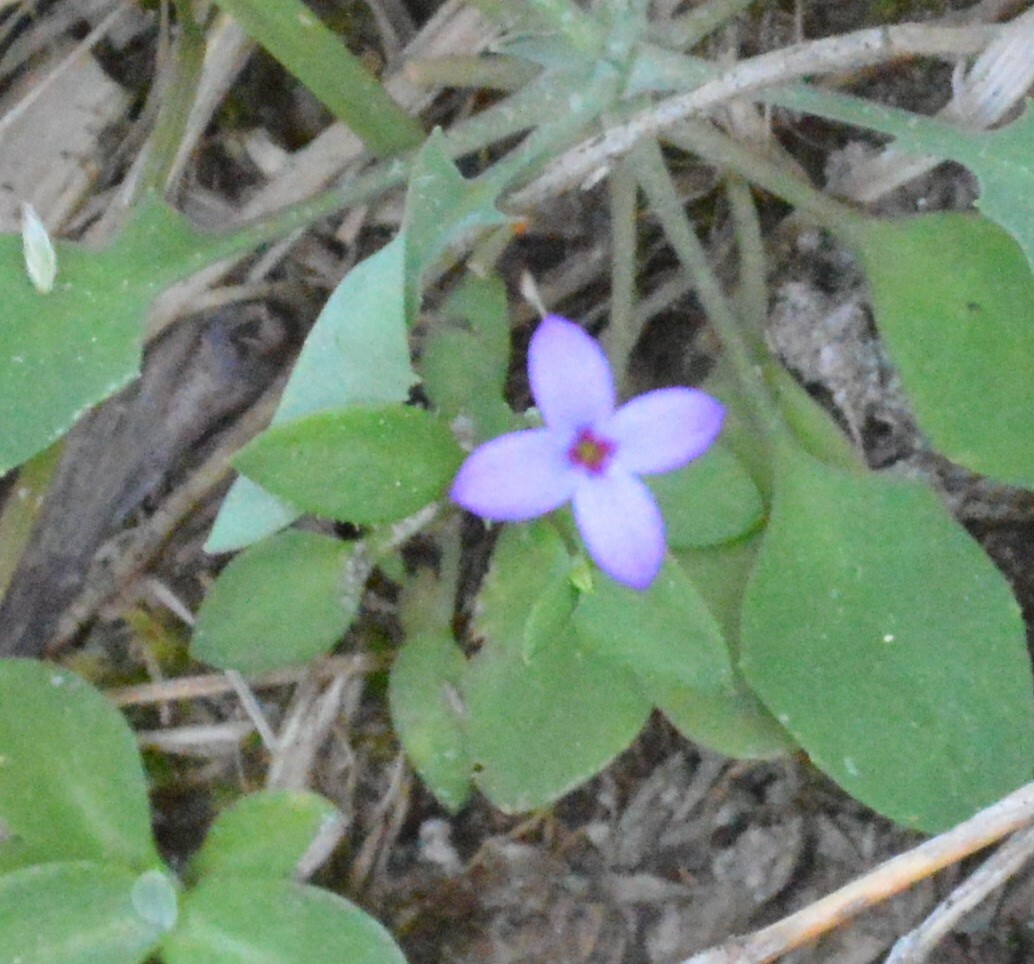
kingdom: Plantae
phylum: Tracheophyta
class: Magnoliopsida
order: Gentianales
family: Rubiaceae
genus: Houstonia
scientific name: Houstonia pusilla
